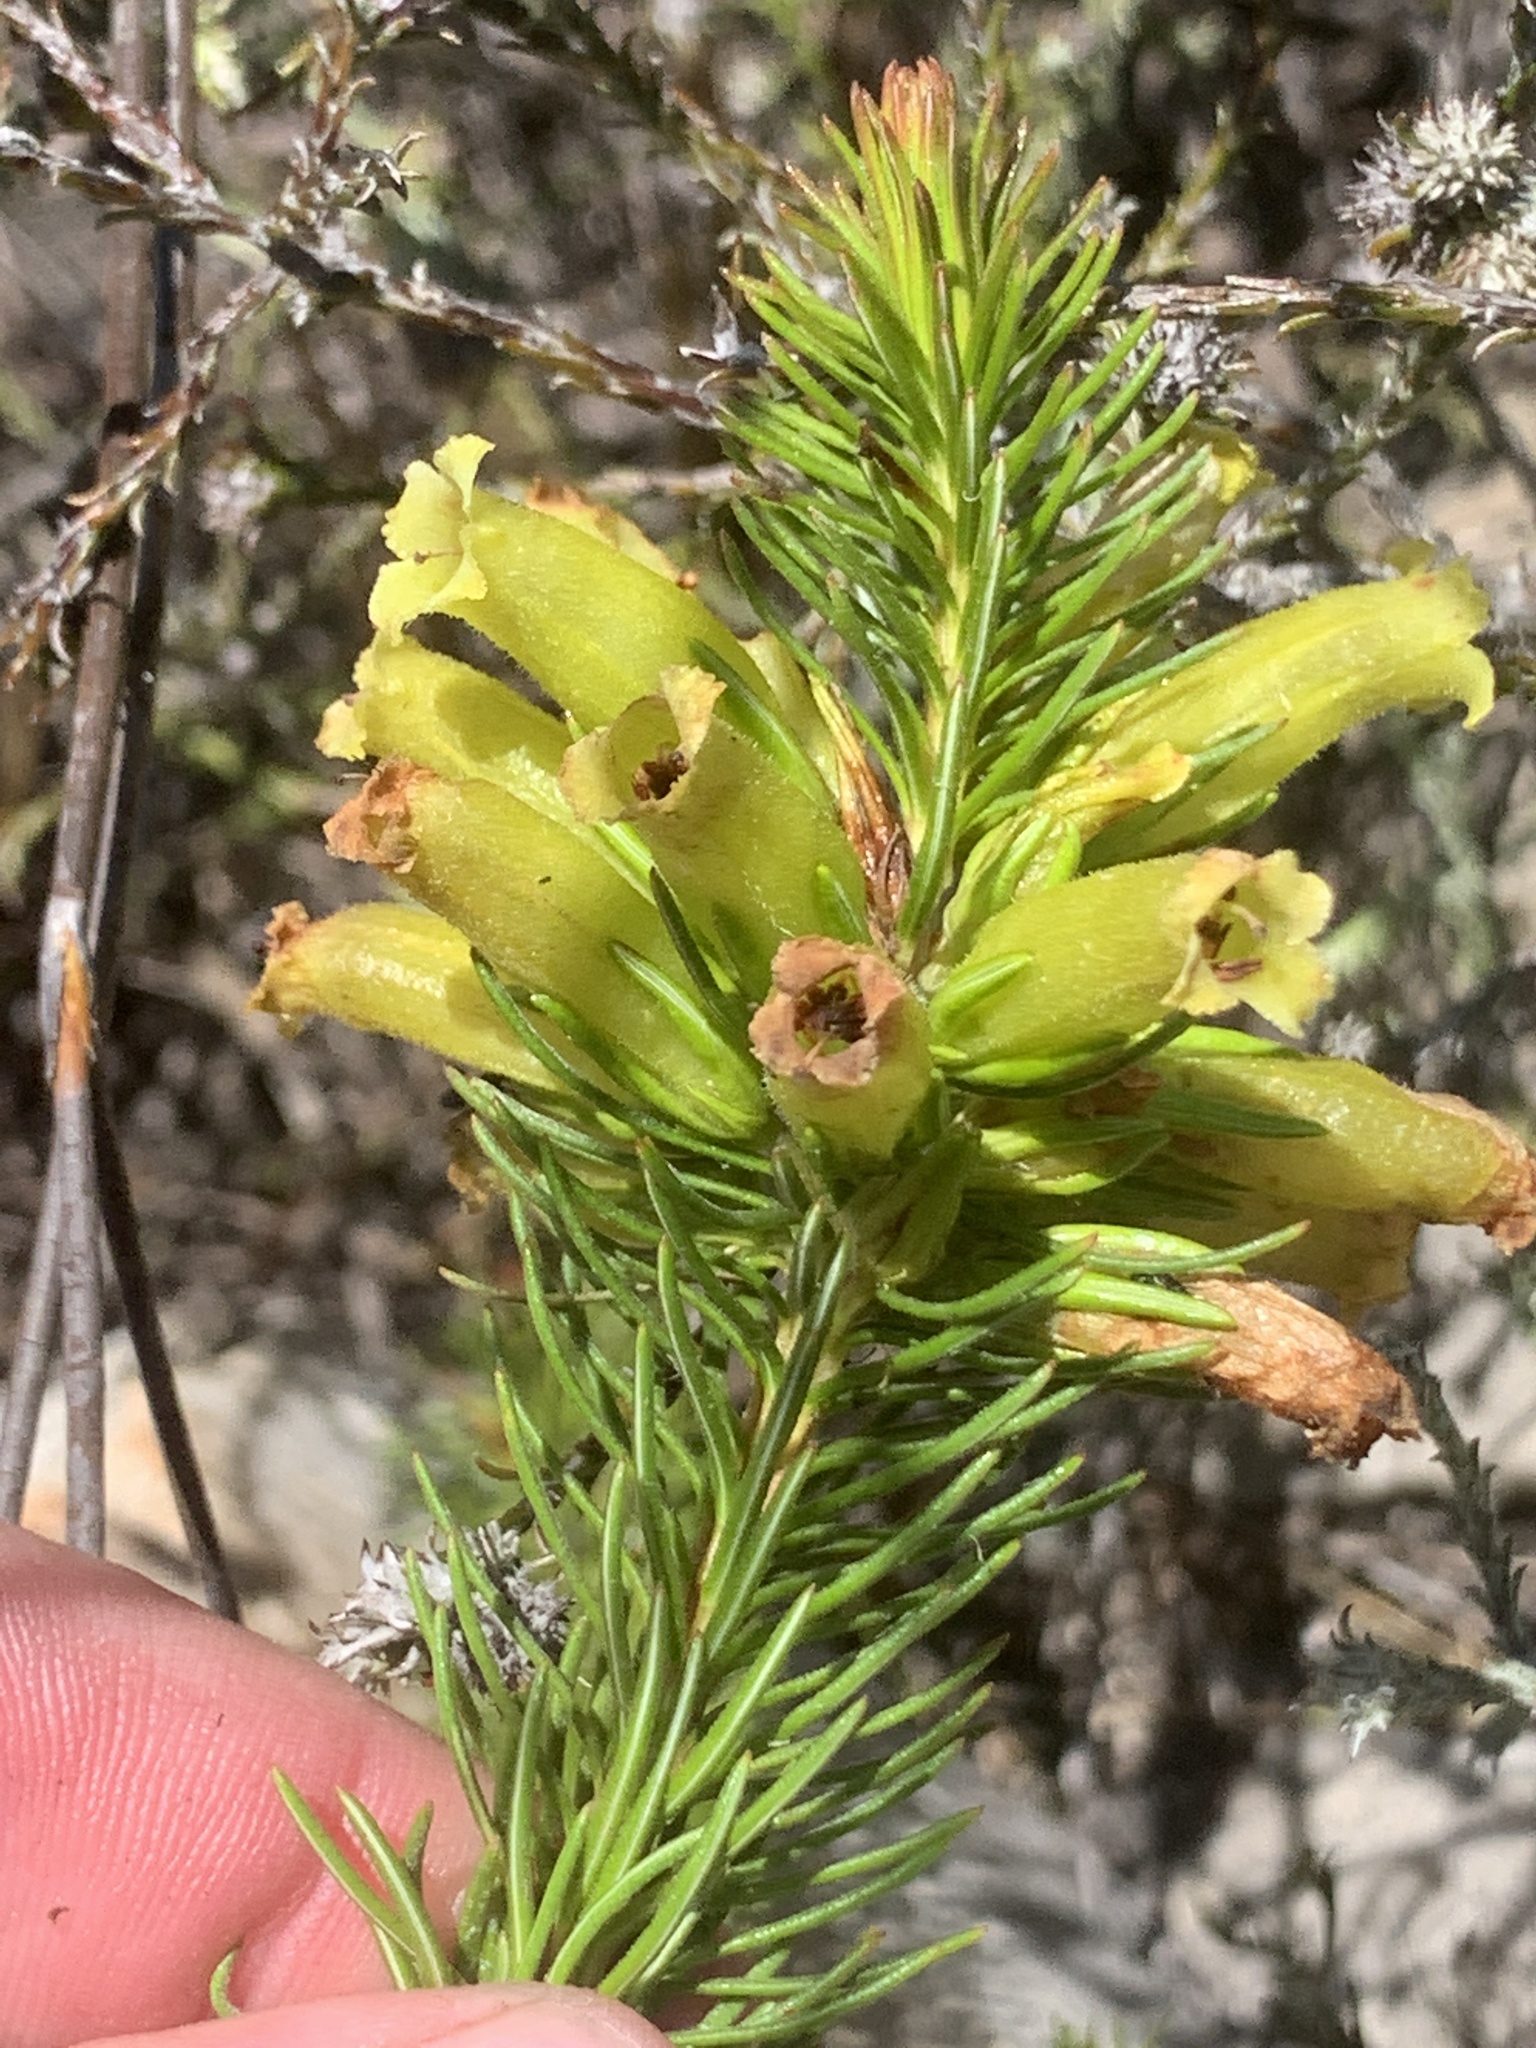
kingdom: Plantae
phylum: Tracheophyta
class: Magnoliopsida
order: Ericales
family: Ericaceae
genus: Erica
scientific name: Erica viscaria
